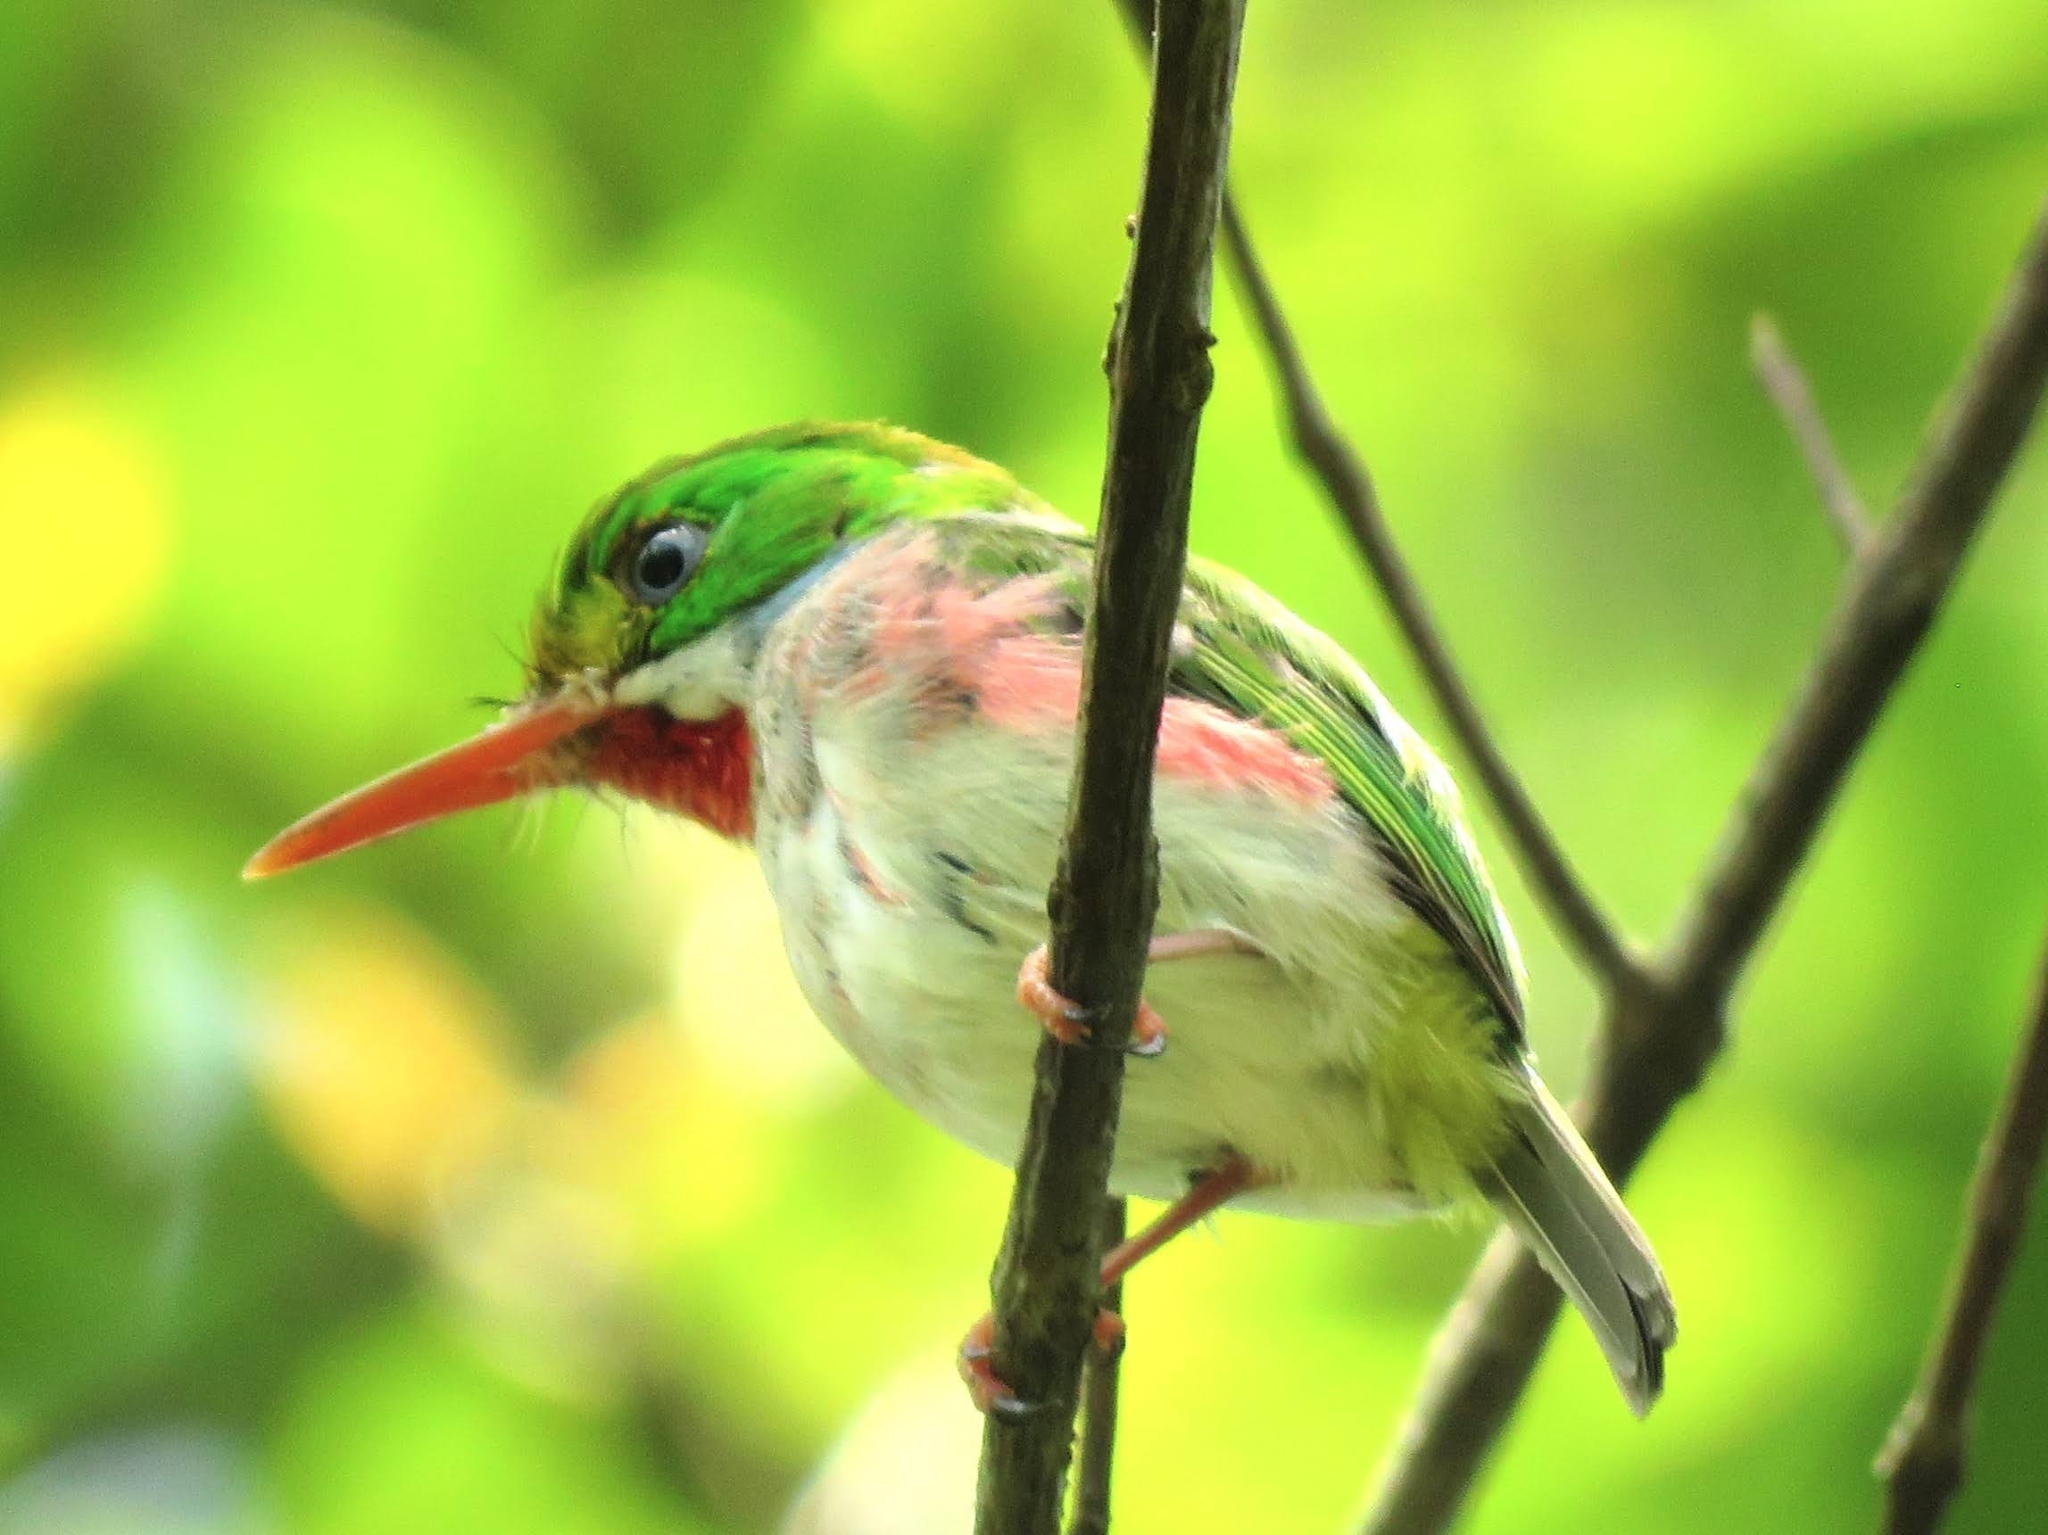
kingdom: Animalia
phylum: Chordata
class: Aves
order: Coraciiformes
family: Todidae
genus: Todus
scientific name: Todus multicolor
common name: Cuban tody
